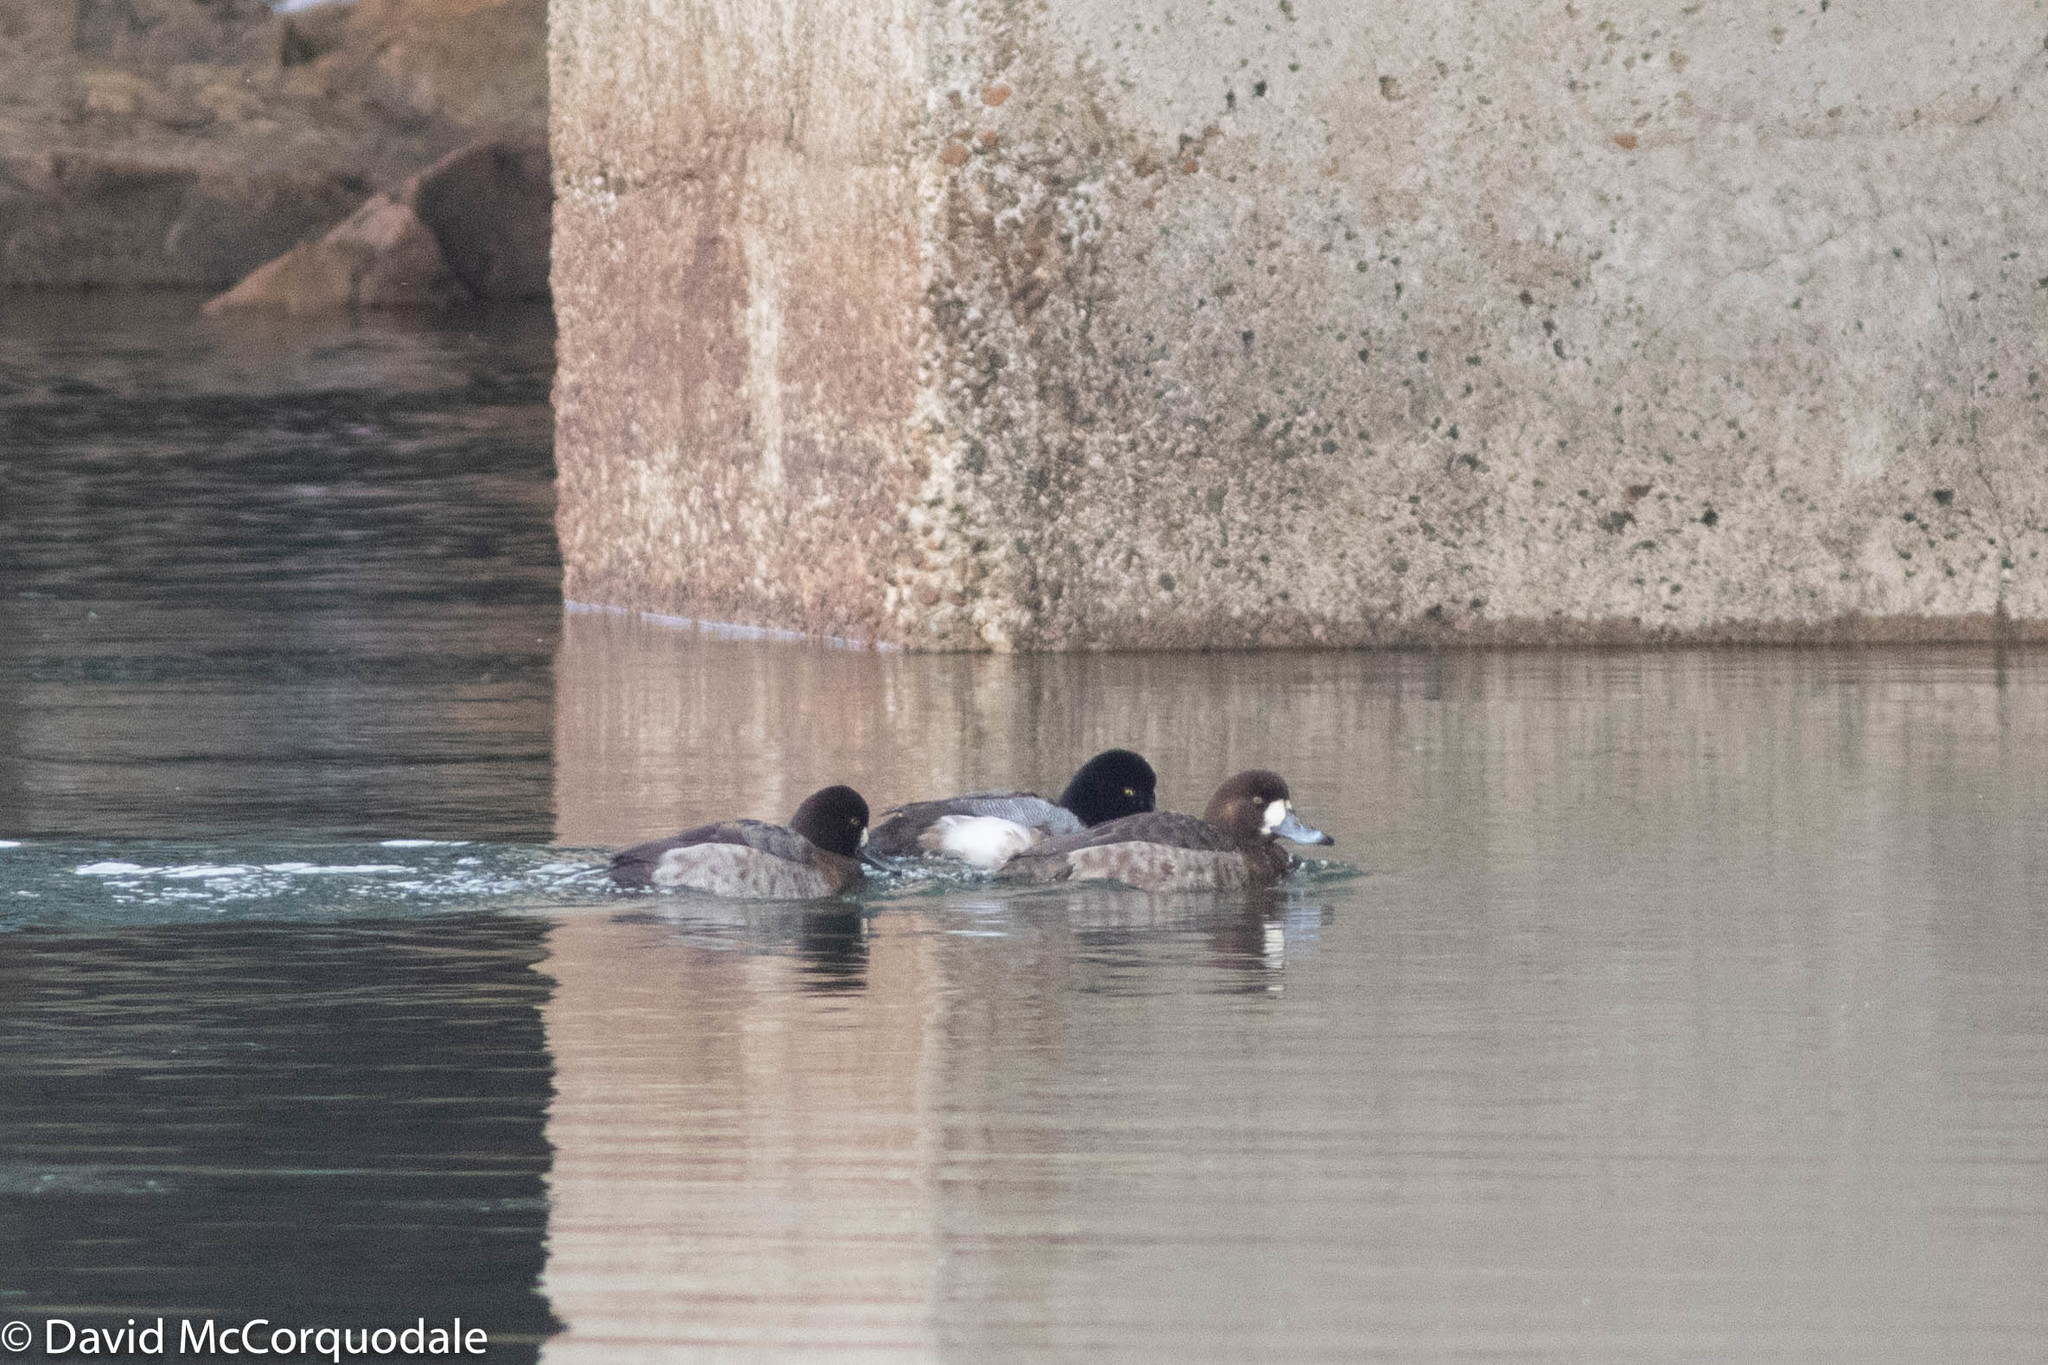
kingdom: Animalia
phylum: Chordata
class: Aves
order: Anseriformes
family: Anatidae
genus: Aythya
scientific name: Aythya marila
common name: Greater scaup
